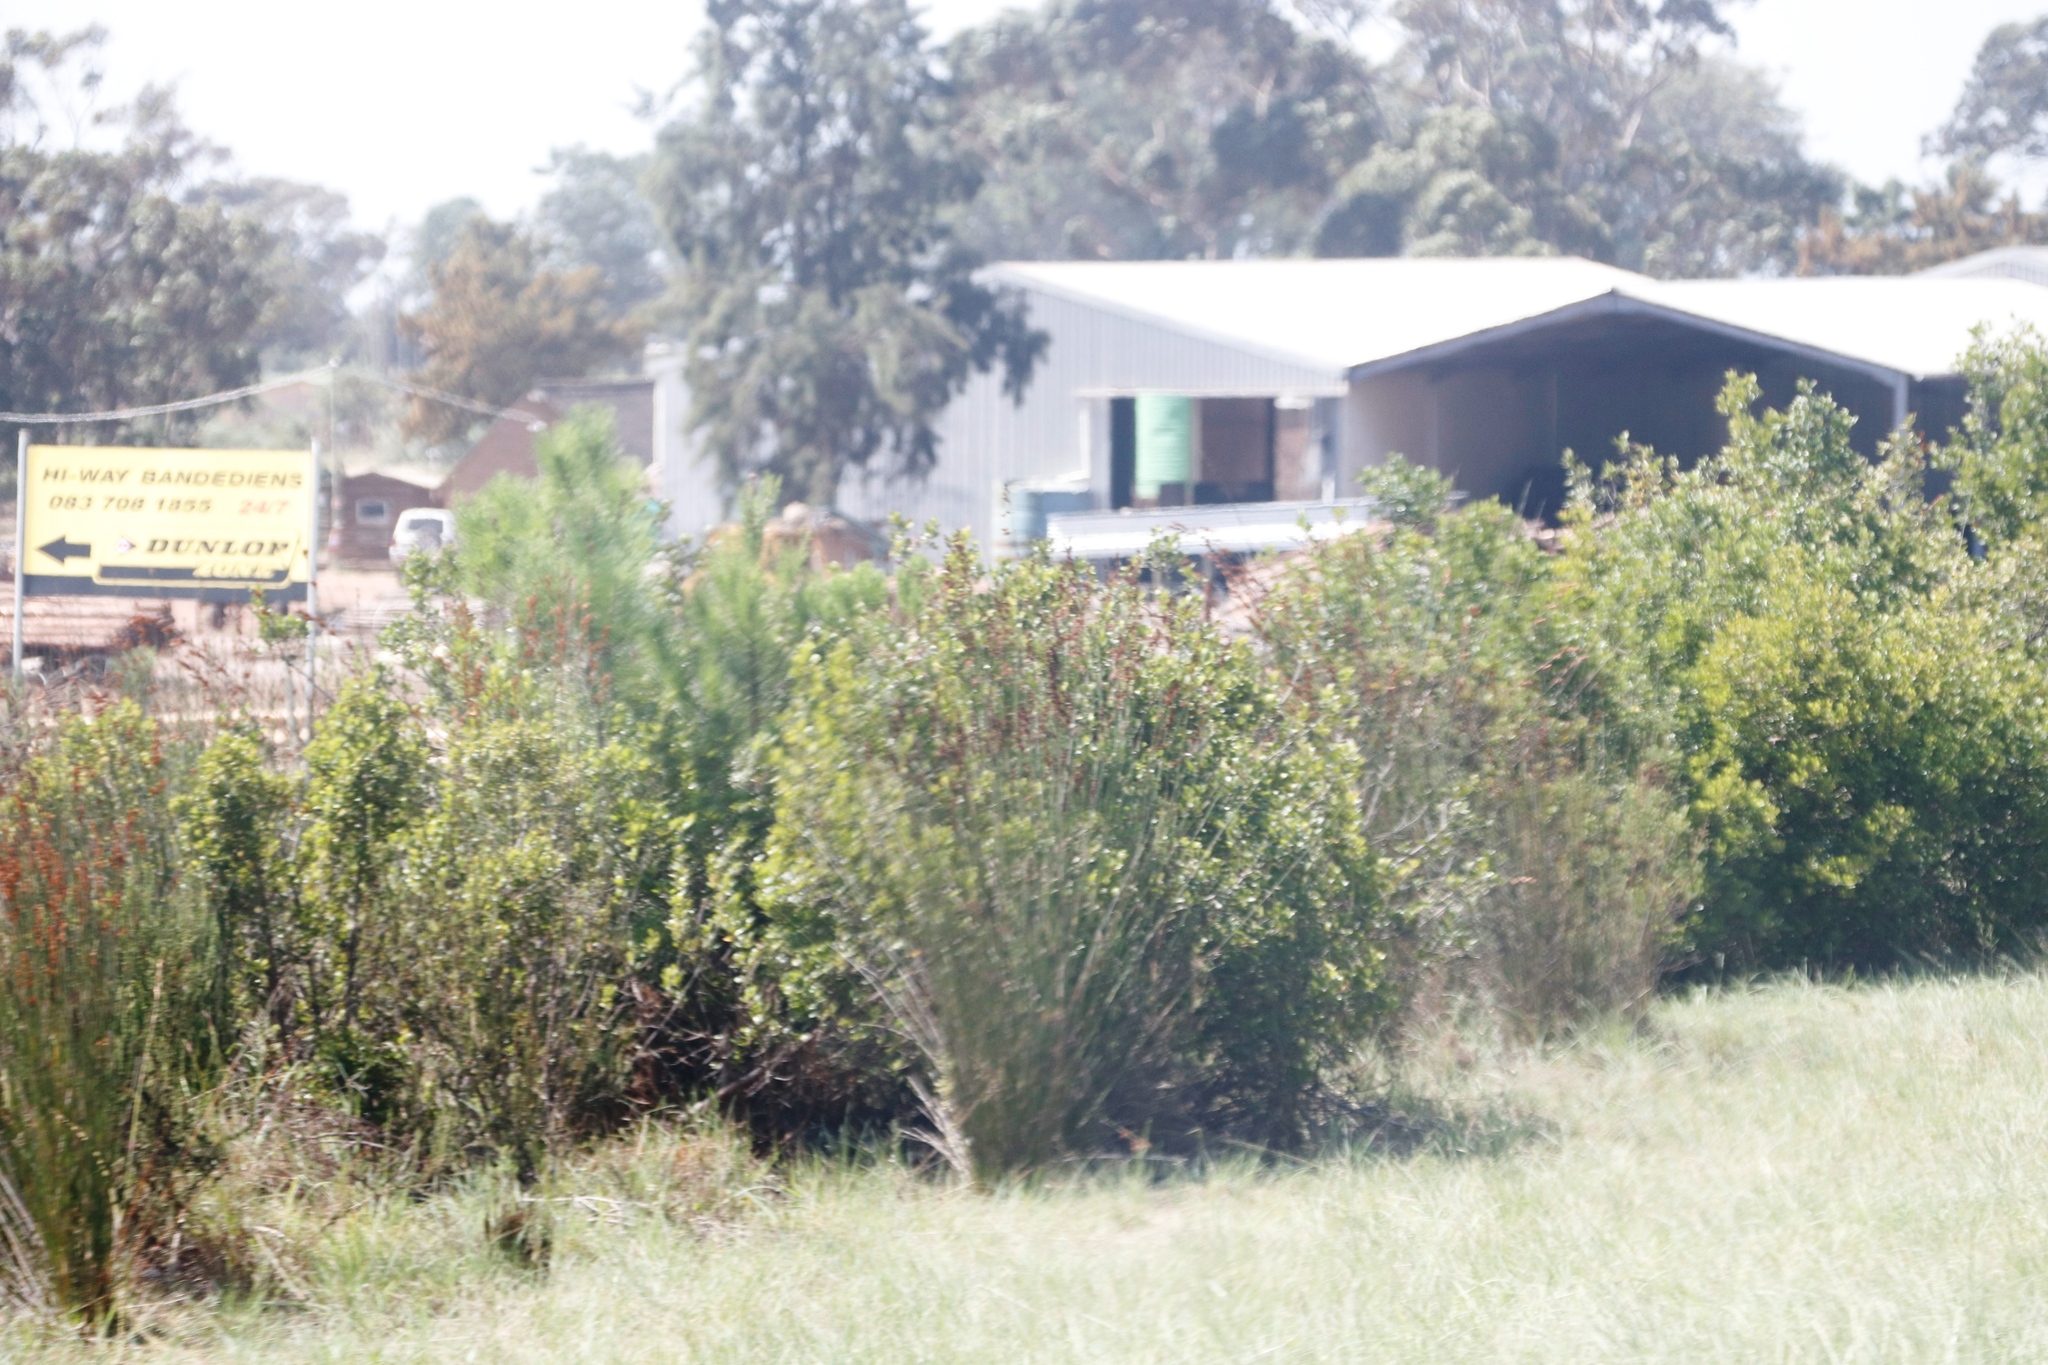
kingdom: Plantae
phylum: Tracheophyta
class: Magnoliopsida
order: Asterales
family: Asteraceae
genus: Osteospermum
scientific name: Osteospermum moniliferum
